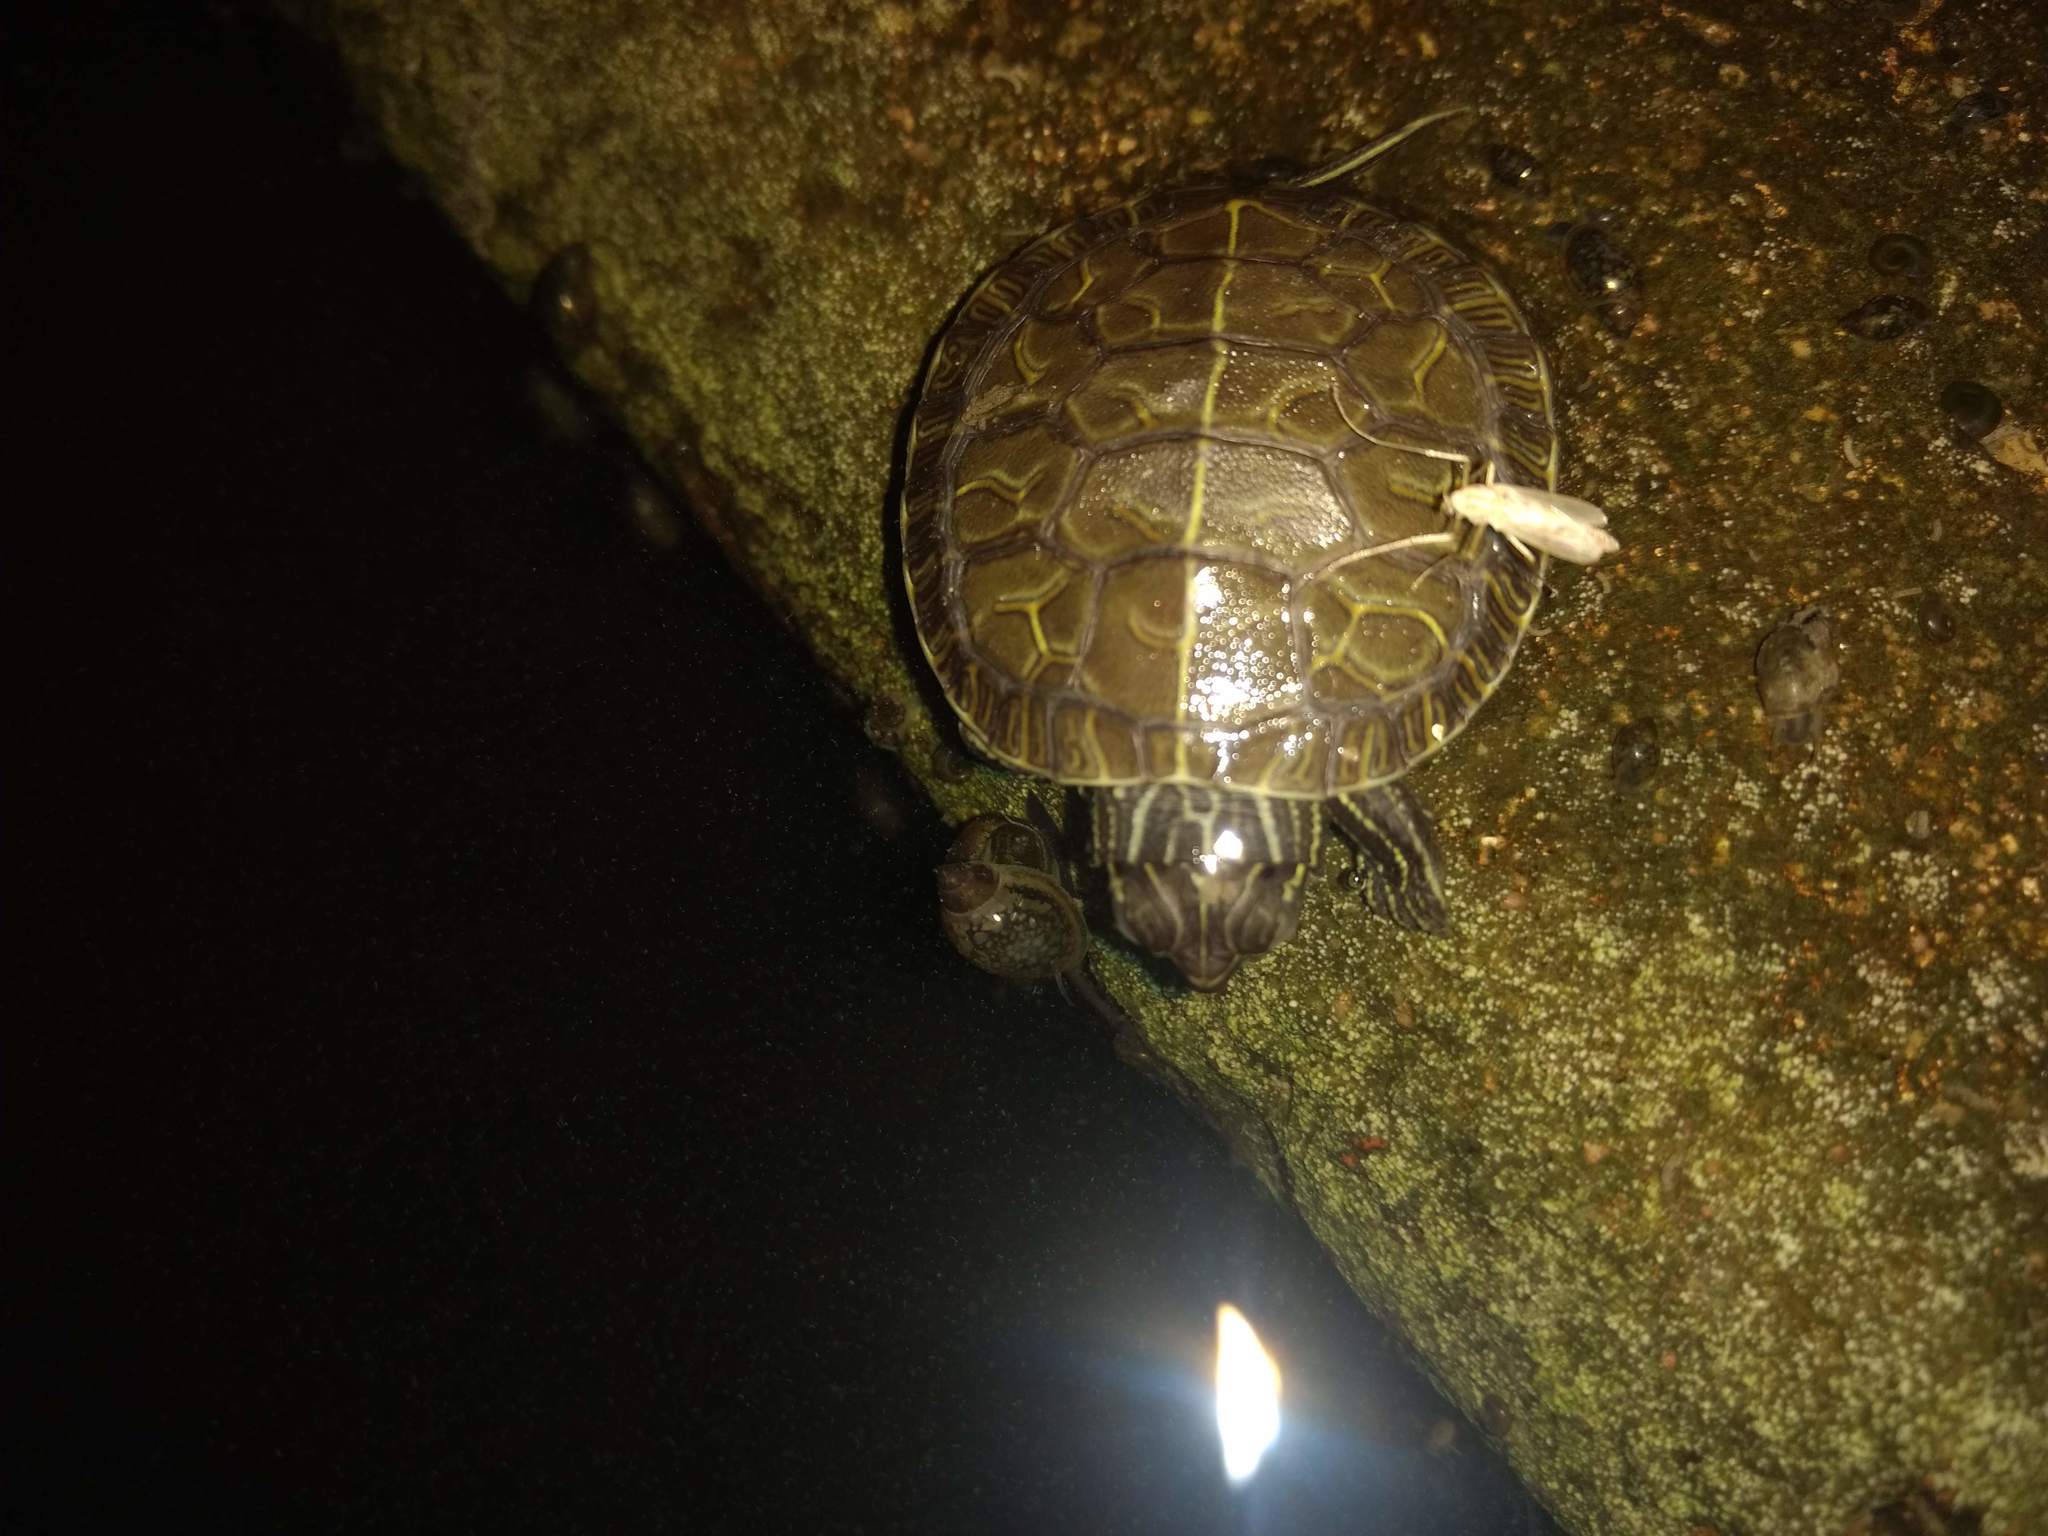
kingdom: Animalia
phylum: Chordata
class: Testudines
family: Emydidae
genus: Chrysemys
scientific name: Chrysemys picta
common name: Painted turtle
